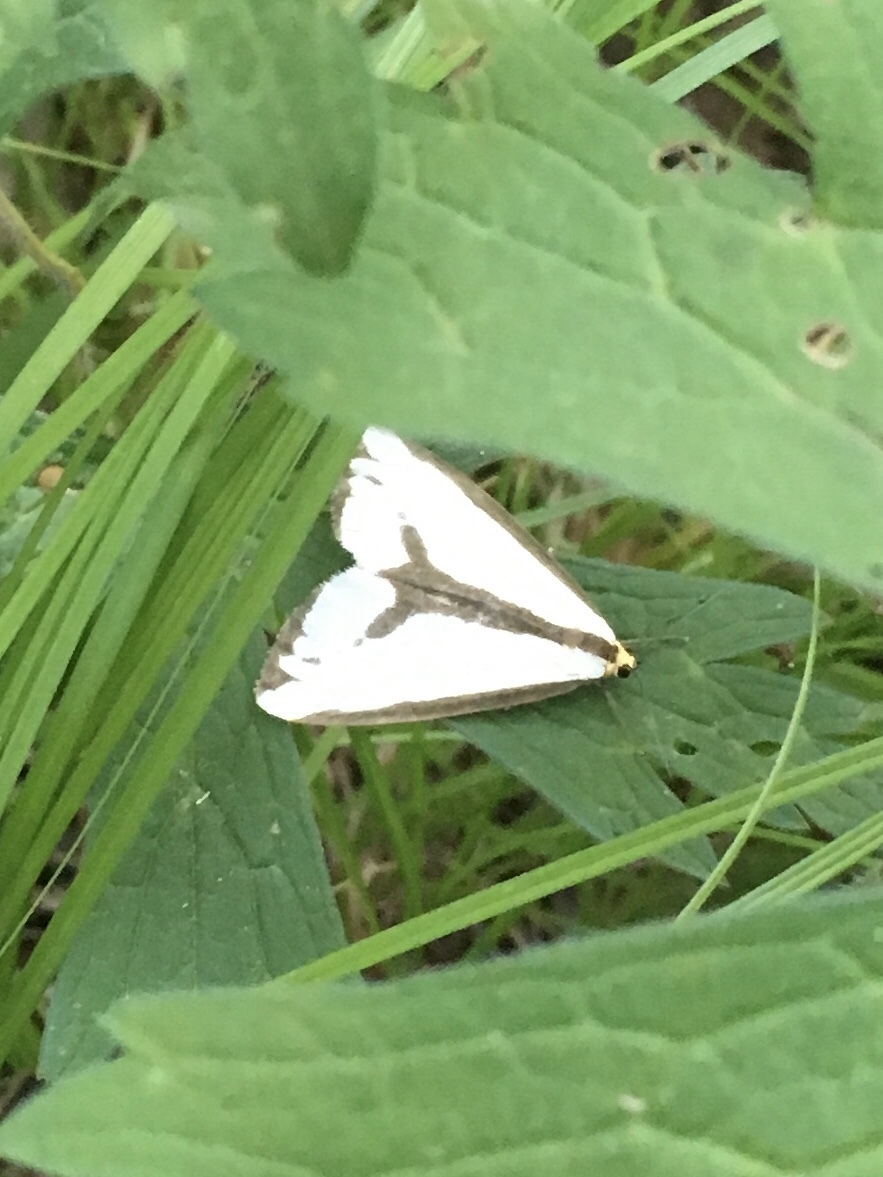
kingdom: Animalia
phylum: Arthropoda
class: Insecta
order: Lepidoptera
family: Erebidae
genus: Haploa
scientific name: Haploa lecontei
